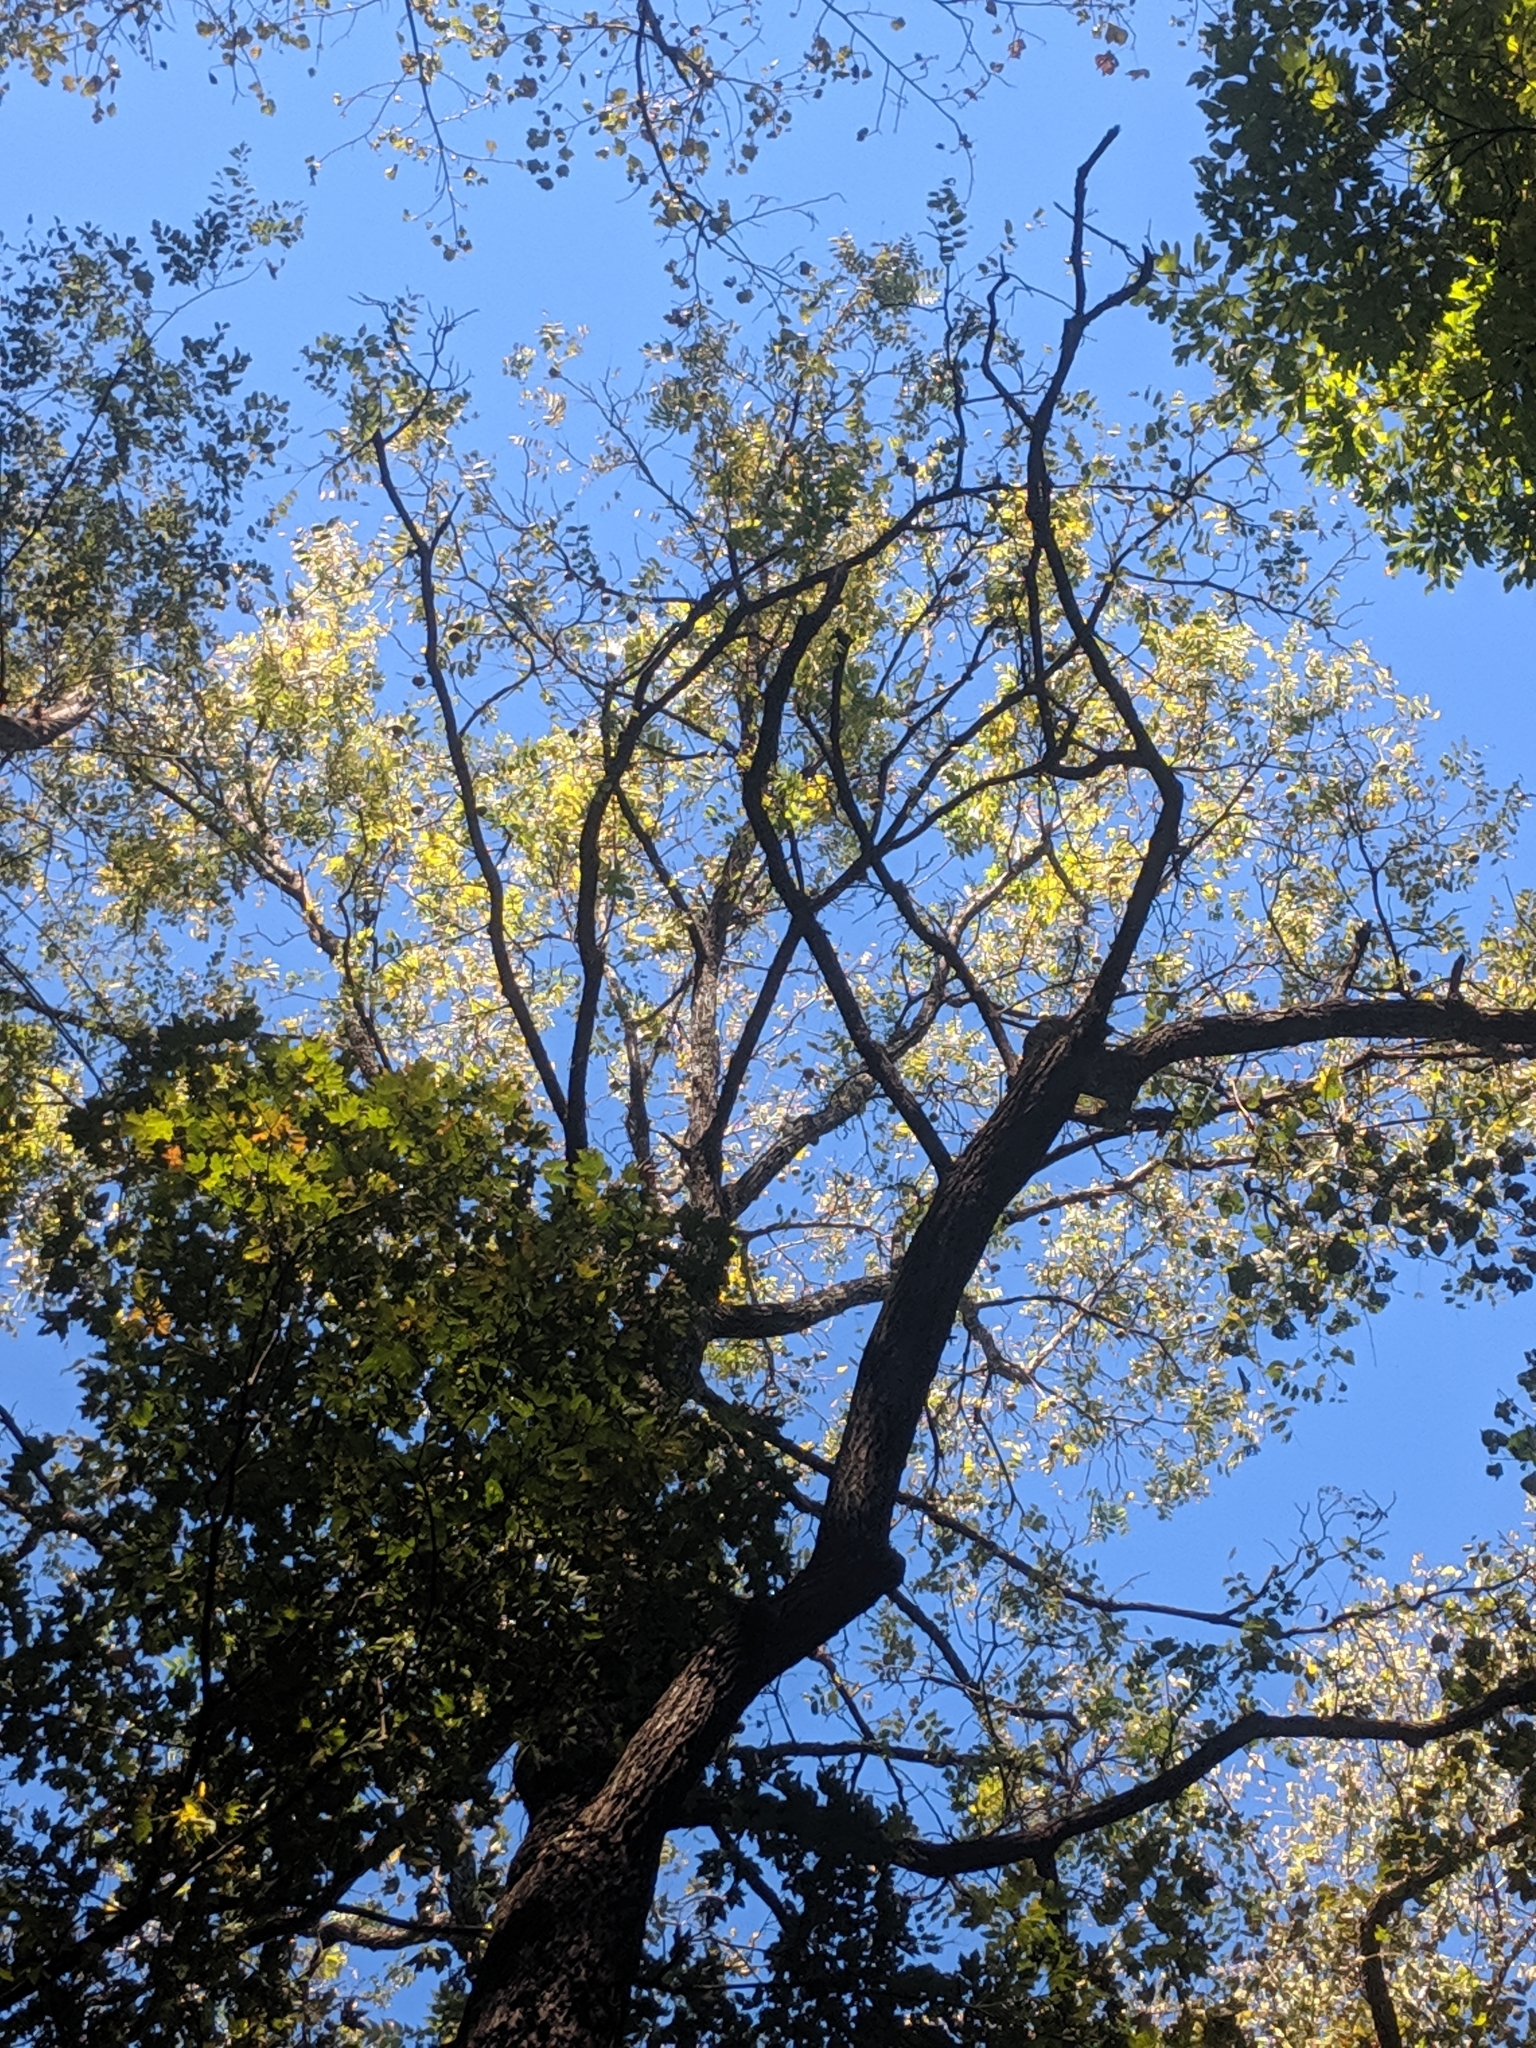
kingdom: Plantae
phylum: Tracheophyta
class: Magnoliopsida
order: Fagales
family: Juglandaceae
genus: Juglans
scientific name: Juglans nigra
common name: Black walnut
